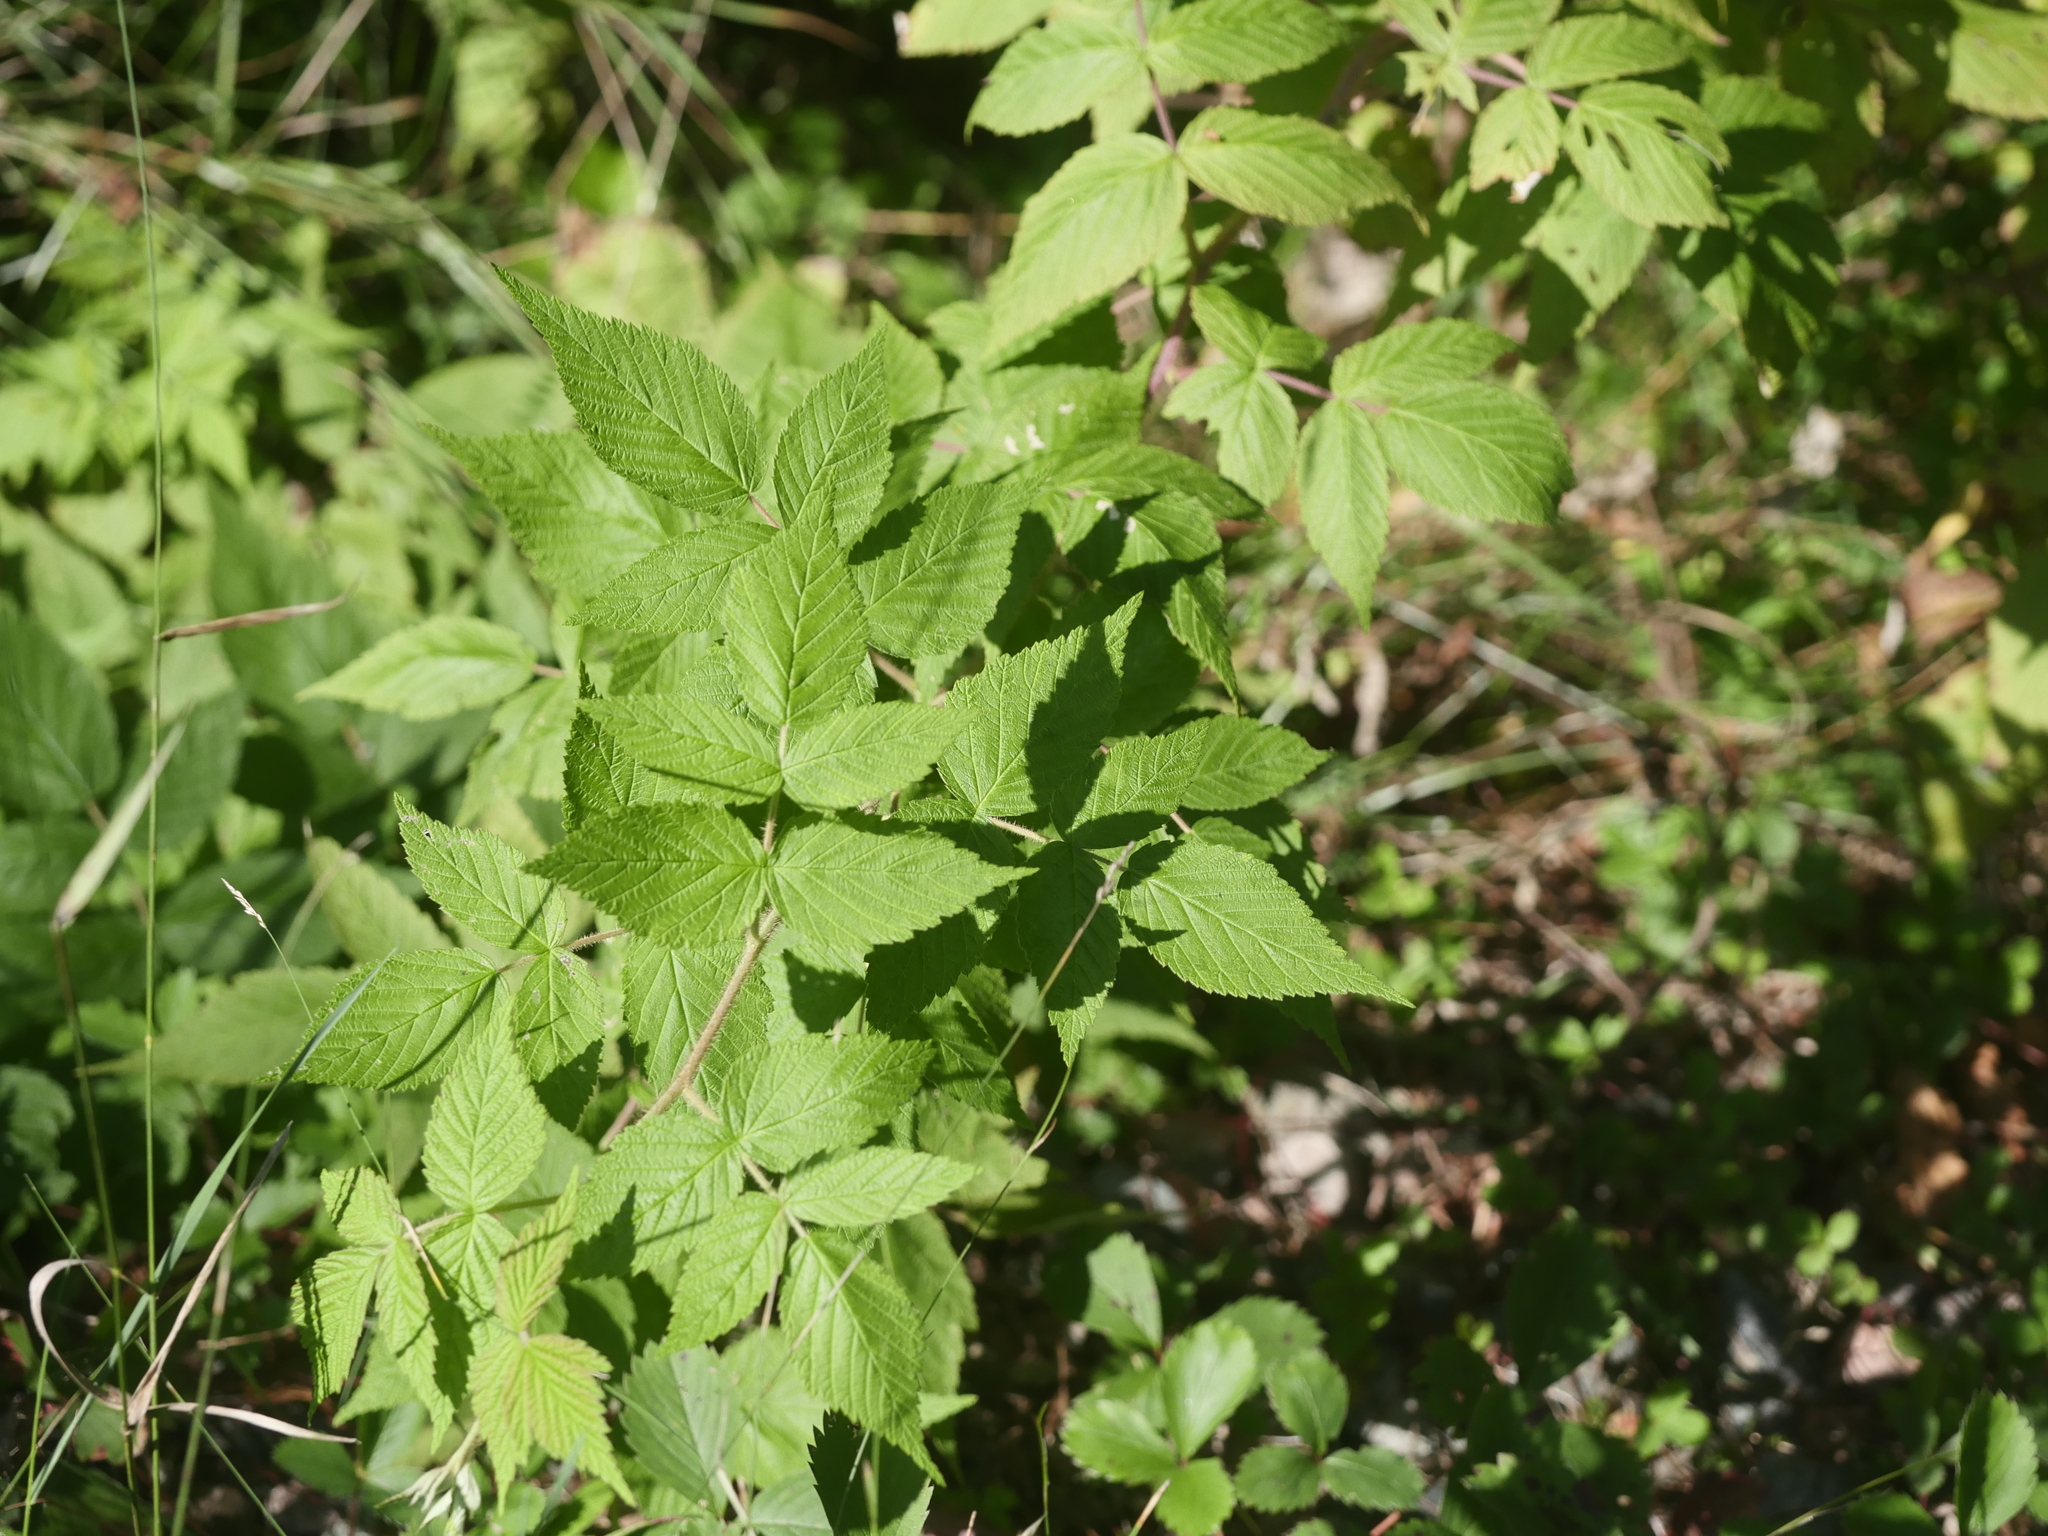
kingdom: Plantae
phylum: Tracheophyta
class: Magnoliopsida
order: Rosales
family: Rosaceae
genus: Rubus
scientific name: Rubus idaeus
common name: Raspberry
